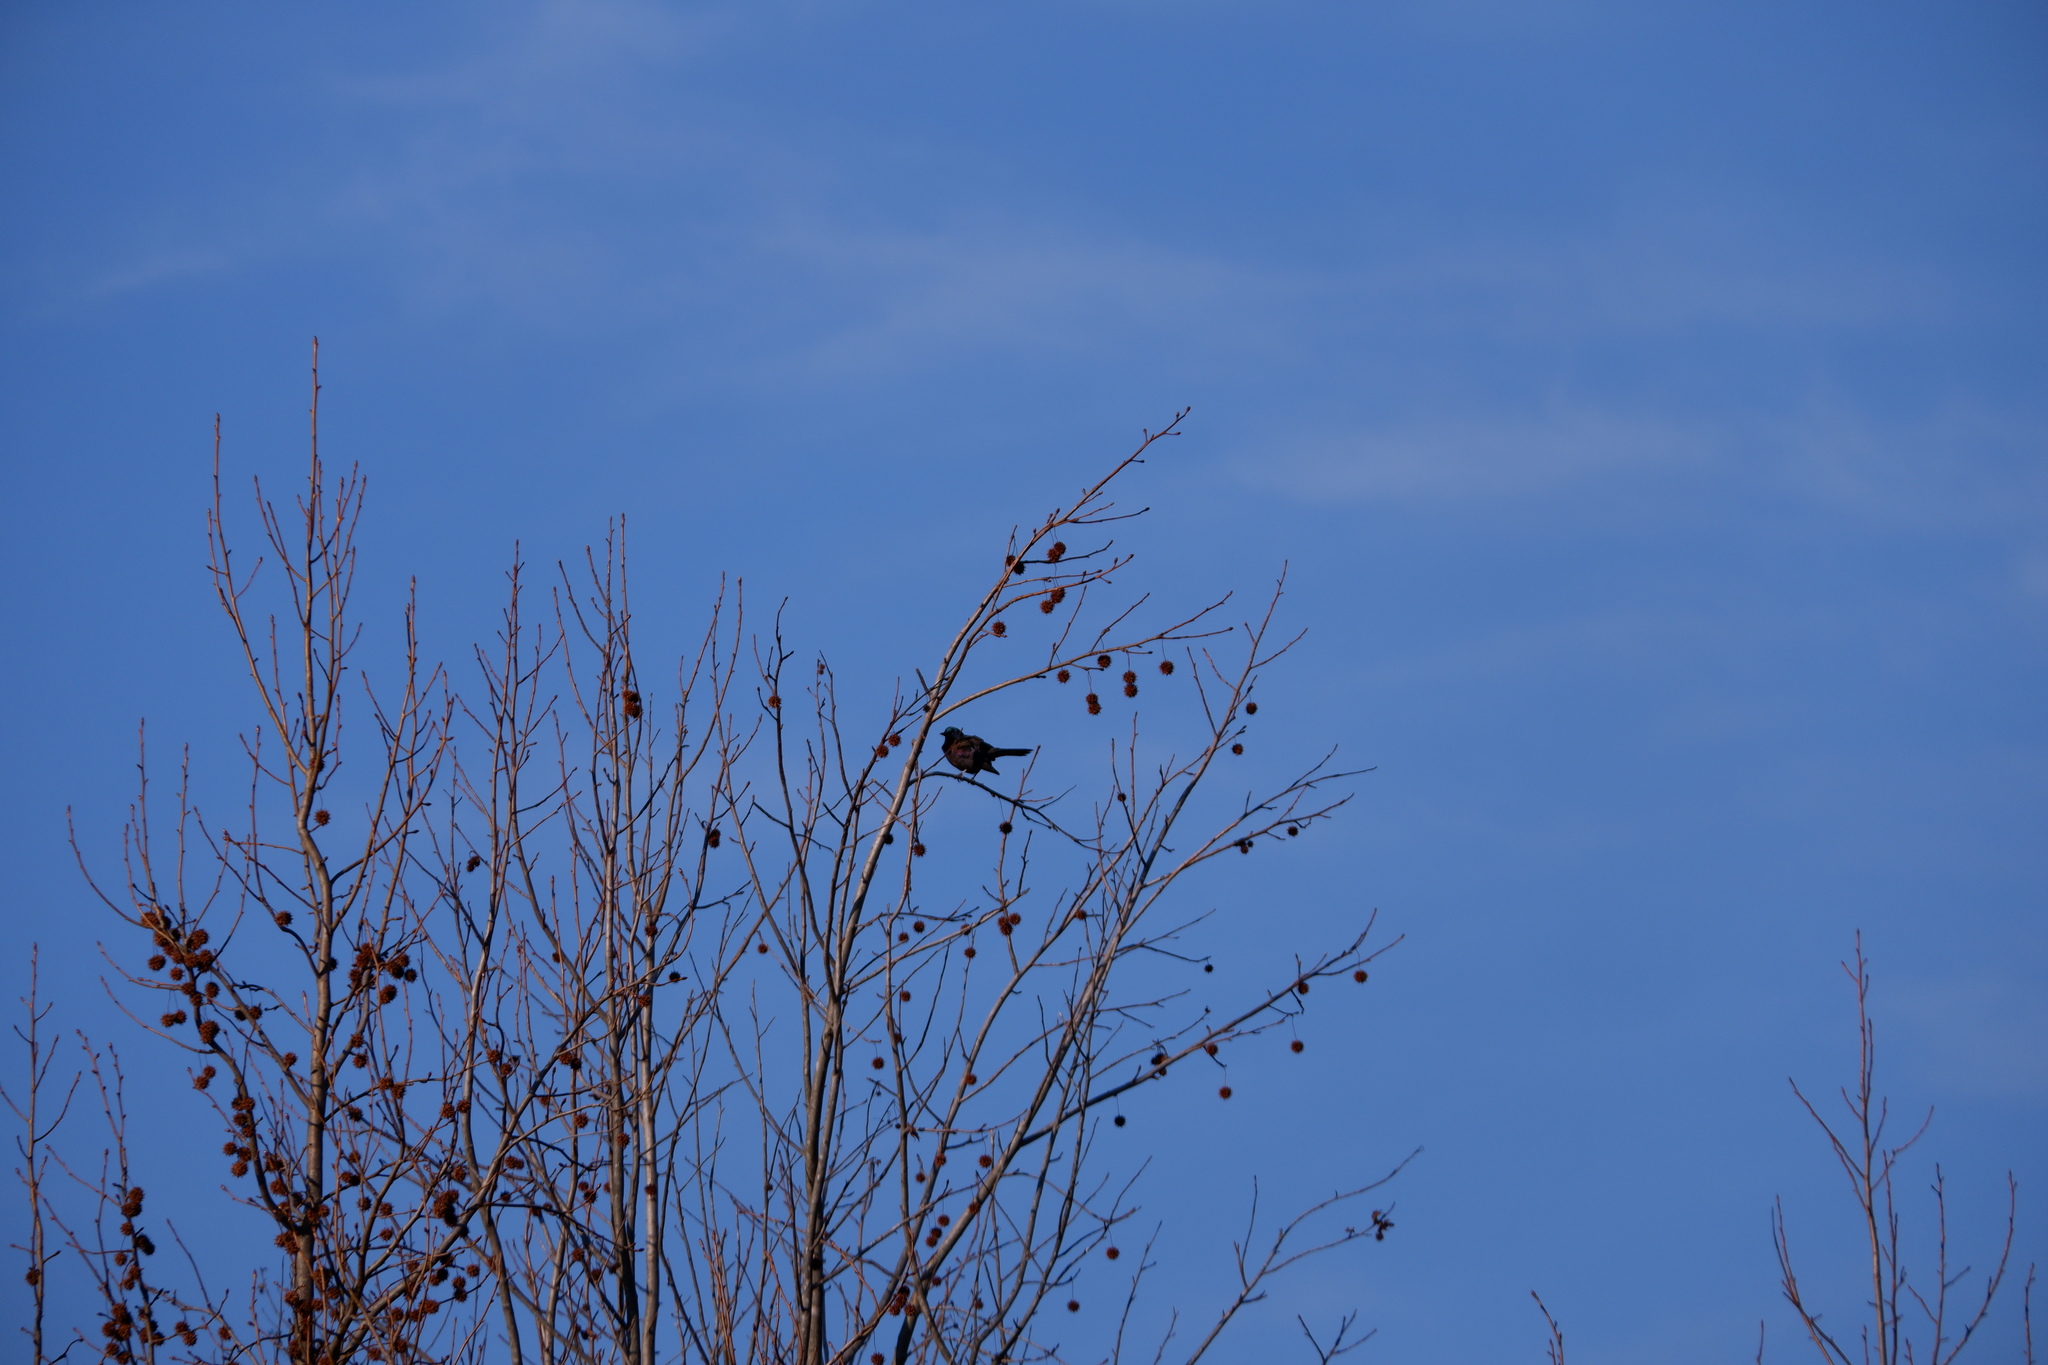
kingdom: Animalia
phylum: Chordata
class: Aves
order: Passeriformes
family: Icteridae
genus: Quiscalus
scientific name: Quiscalus quiscula
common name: Common grackle
